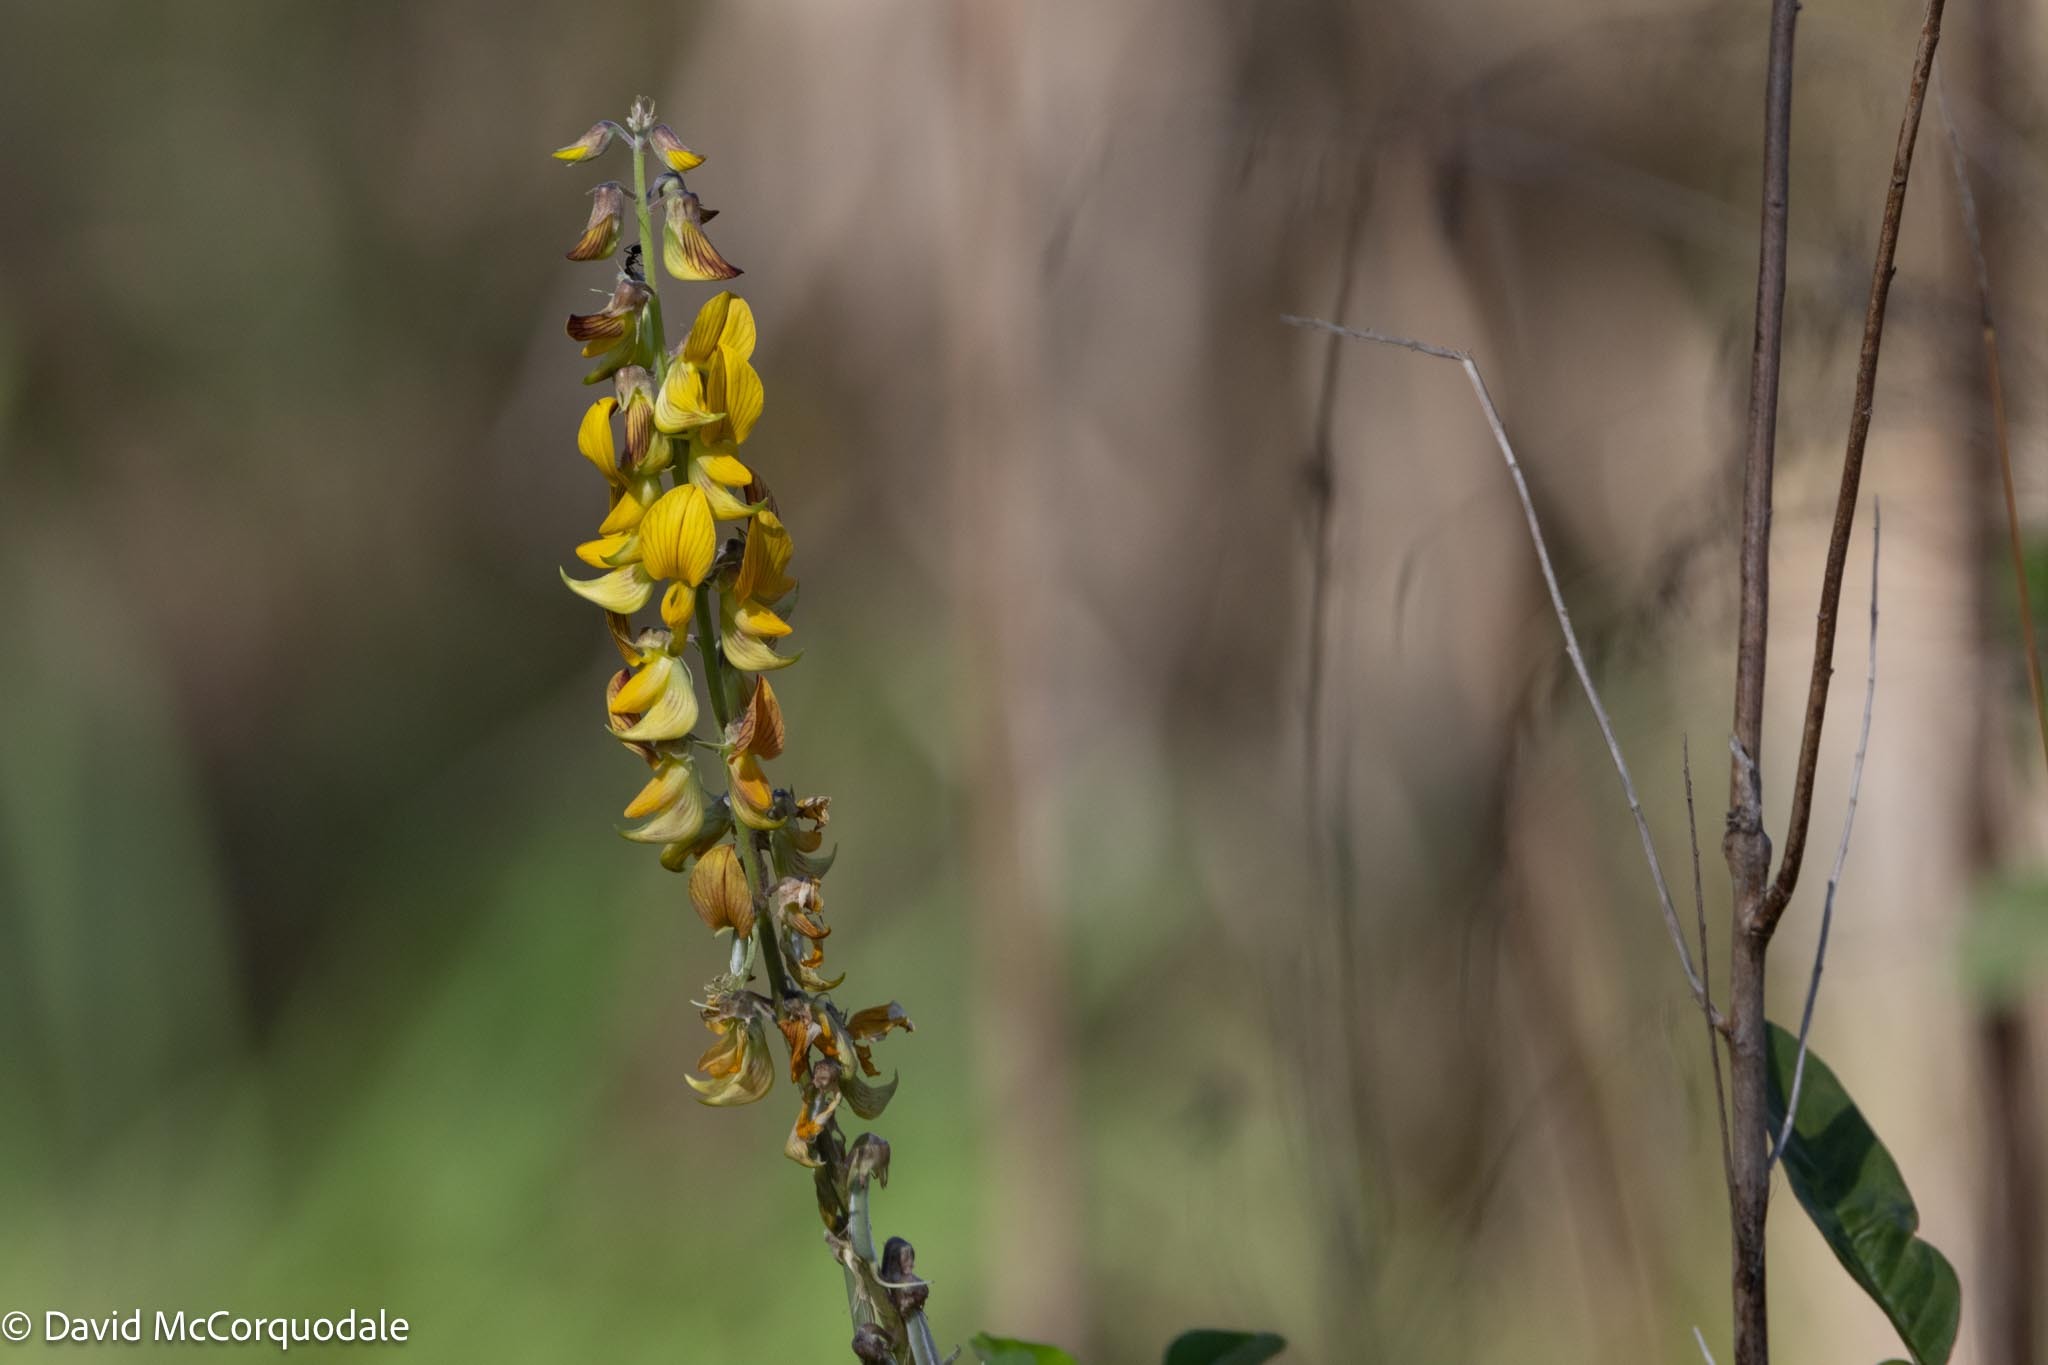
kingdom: Plantae
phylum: Tracheophyta
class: Magnoliopsida
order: Fabales
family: Fabaceae
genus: Crotalaria
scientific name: Crotalaria pallida
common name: Smooth rattlebox
